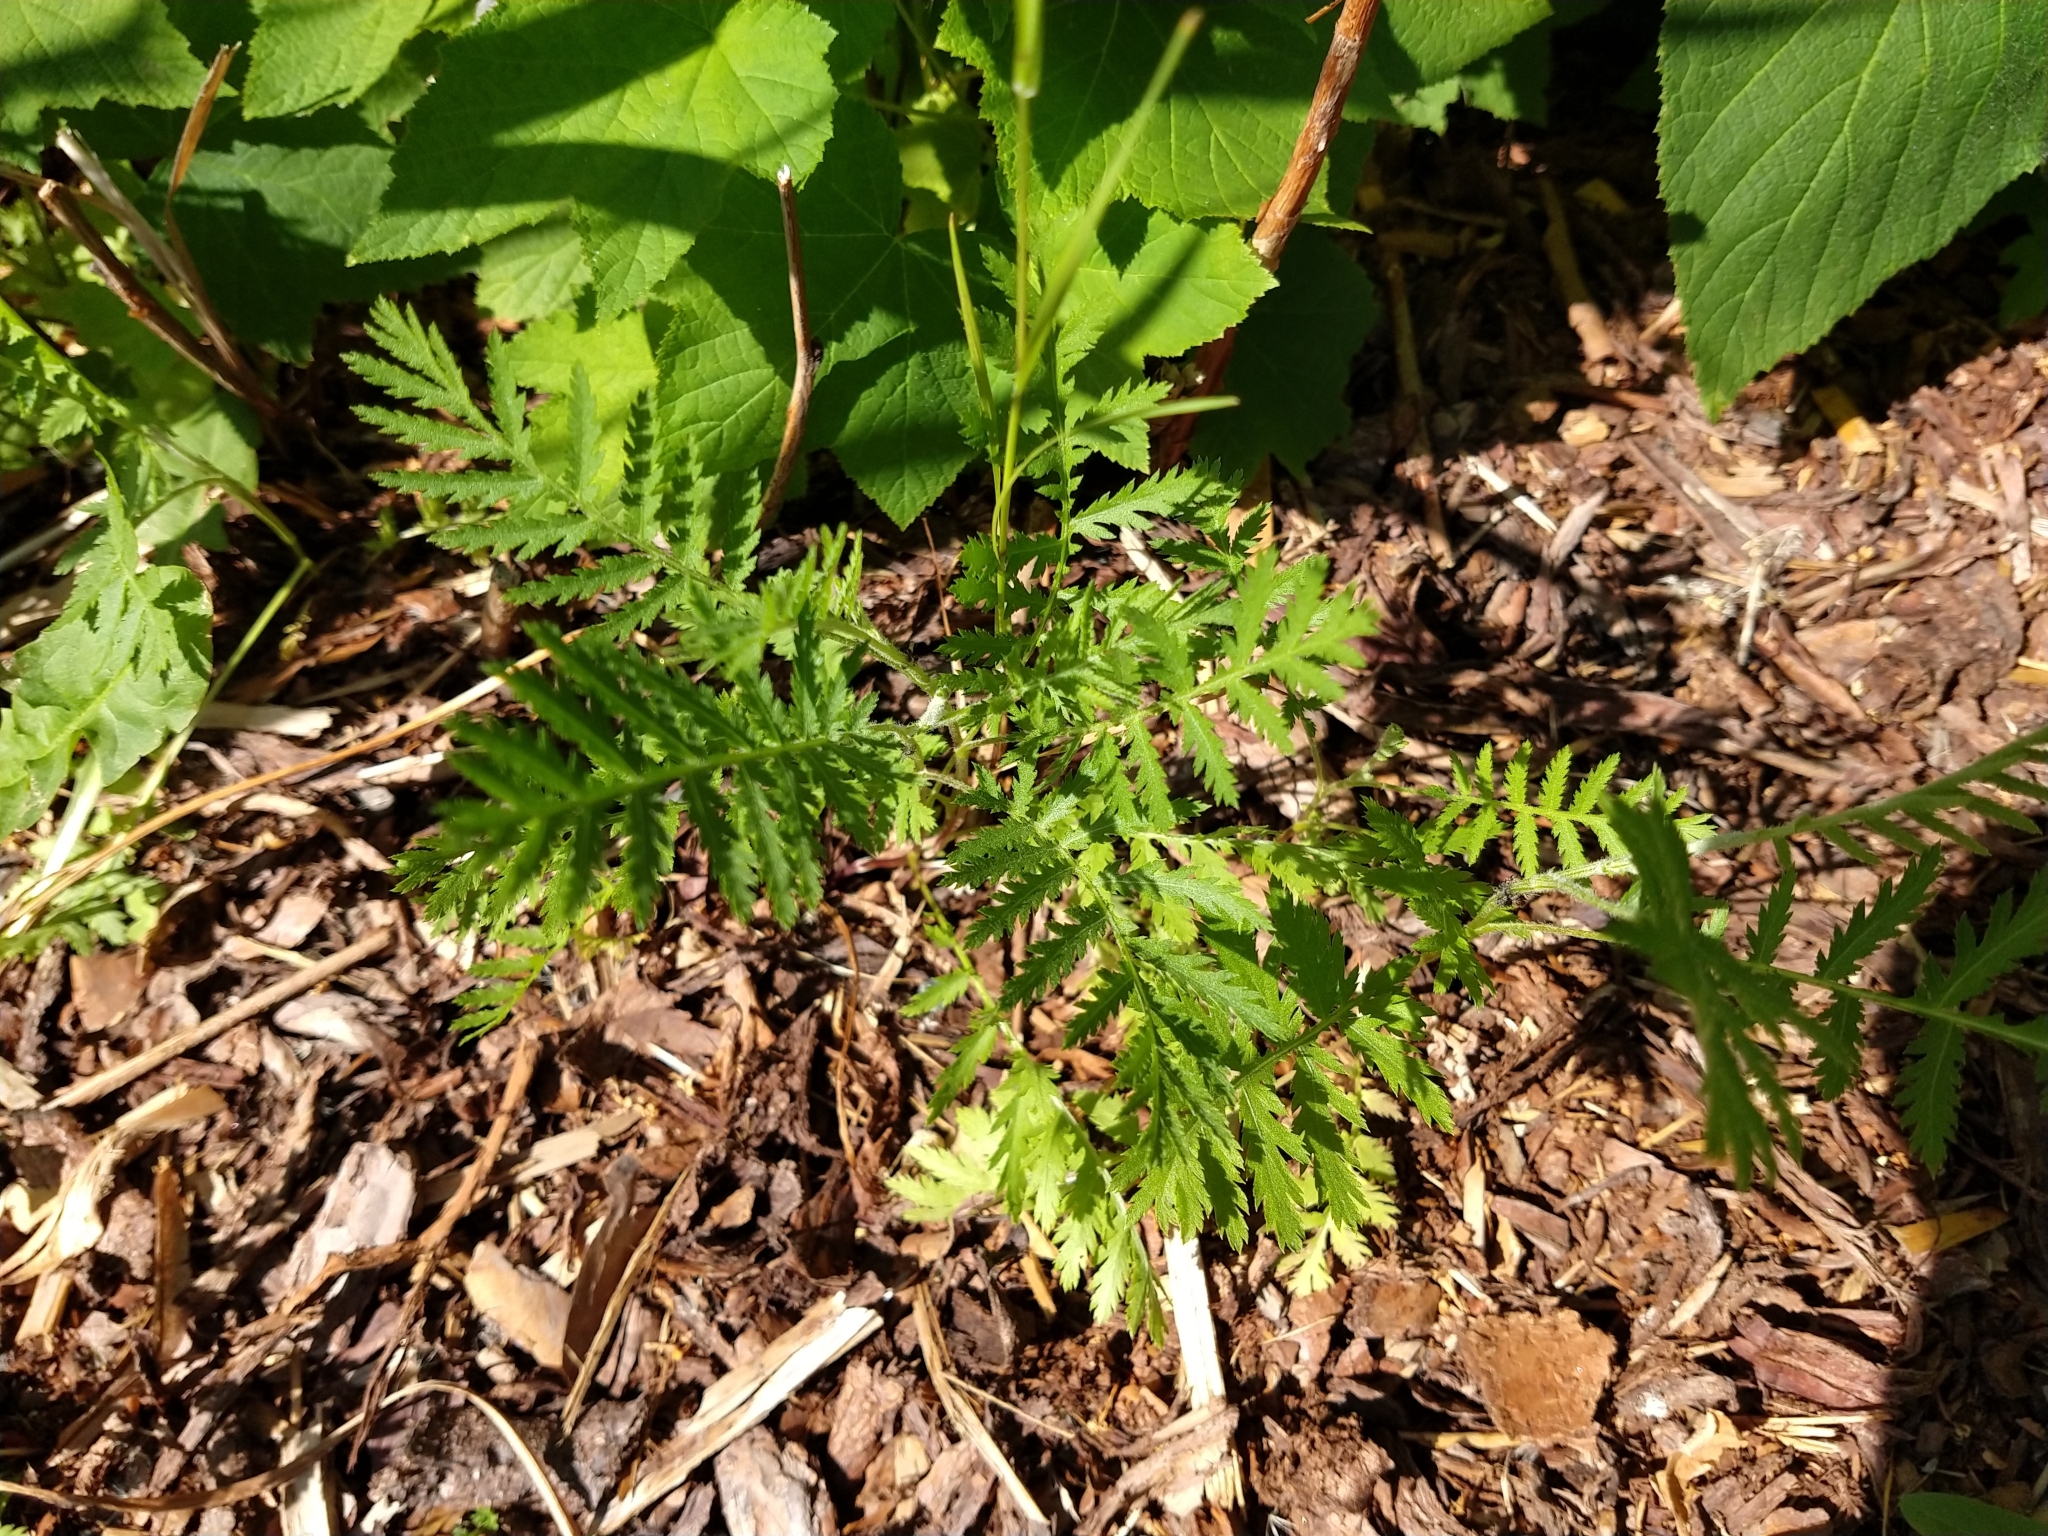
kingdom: Plantae
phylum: Tracheophyta
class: Magnoliopsida
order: Asterales
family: Asteraceae
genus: Tanacetum
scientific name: Tanacetum vulgare
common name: Common tansy
